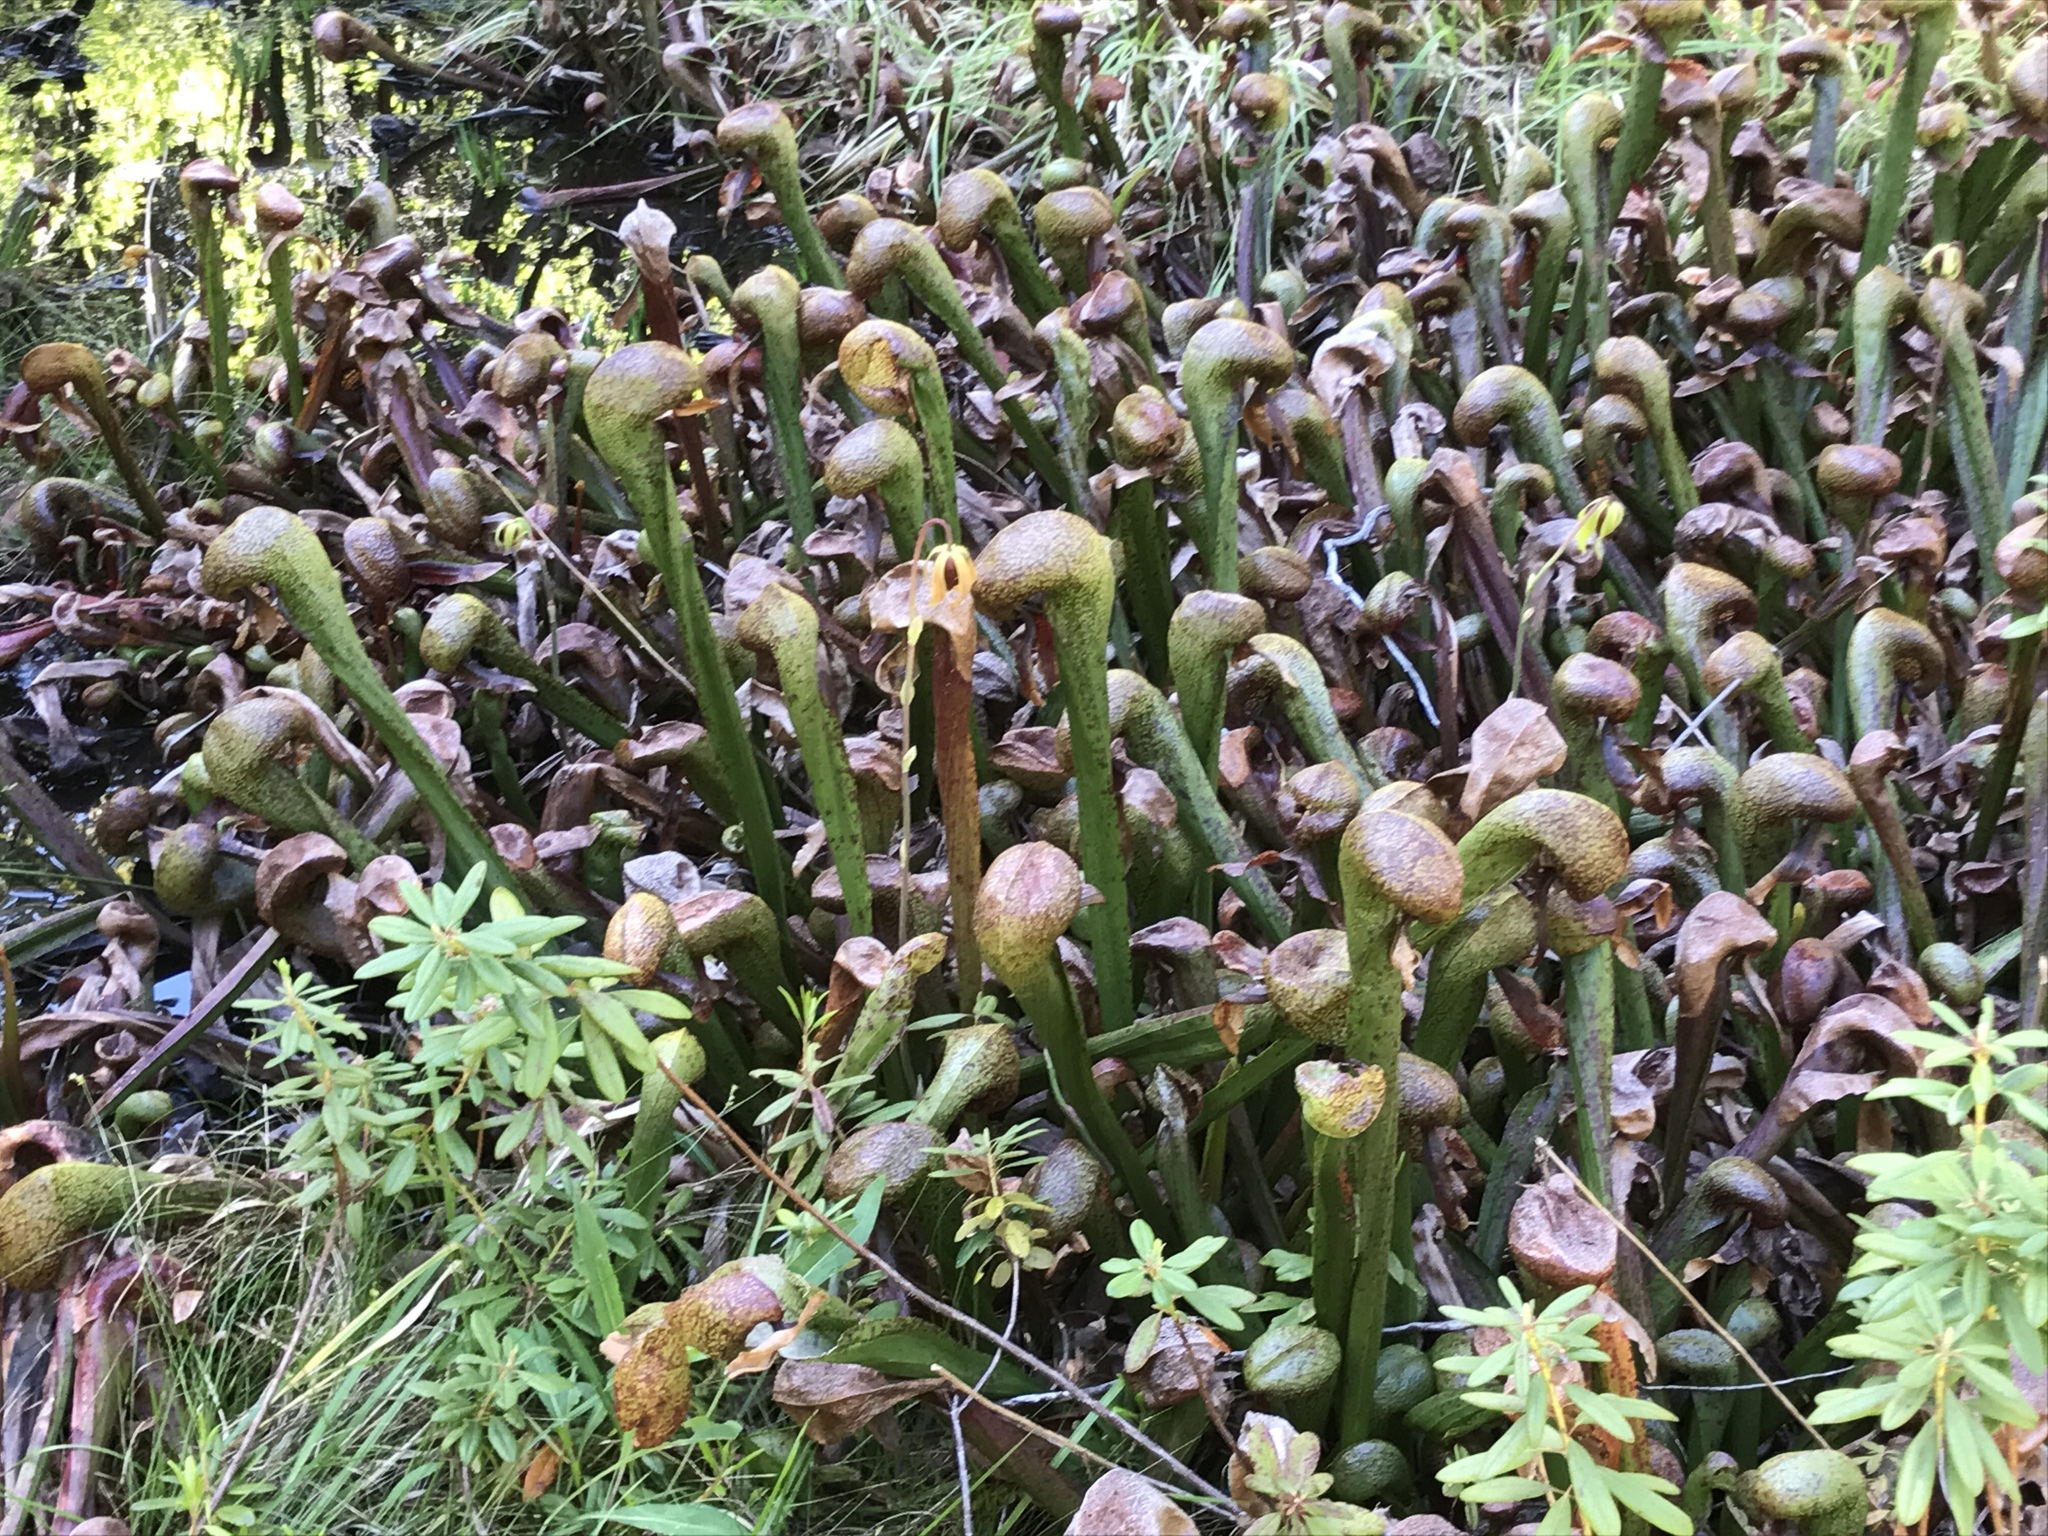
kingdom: Plantae
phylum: Tracheophyta
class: Magnoliopsida
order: Ericales
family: Sarraceniaceae
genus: Darlingtonia
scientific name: Darlingtonia californica
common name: California pitcher plant
